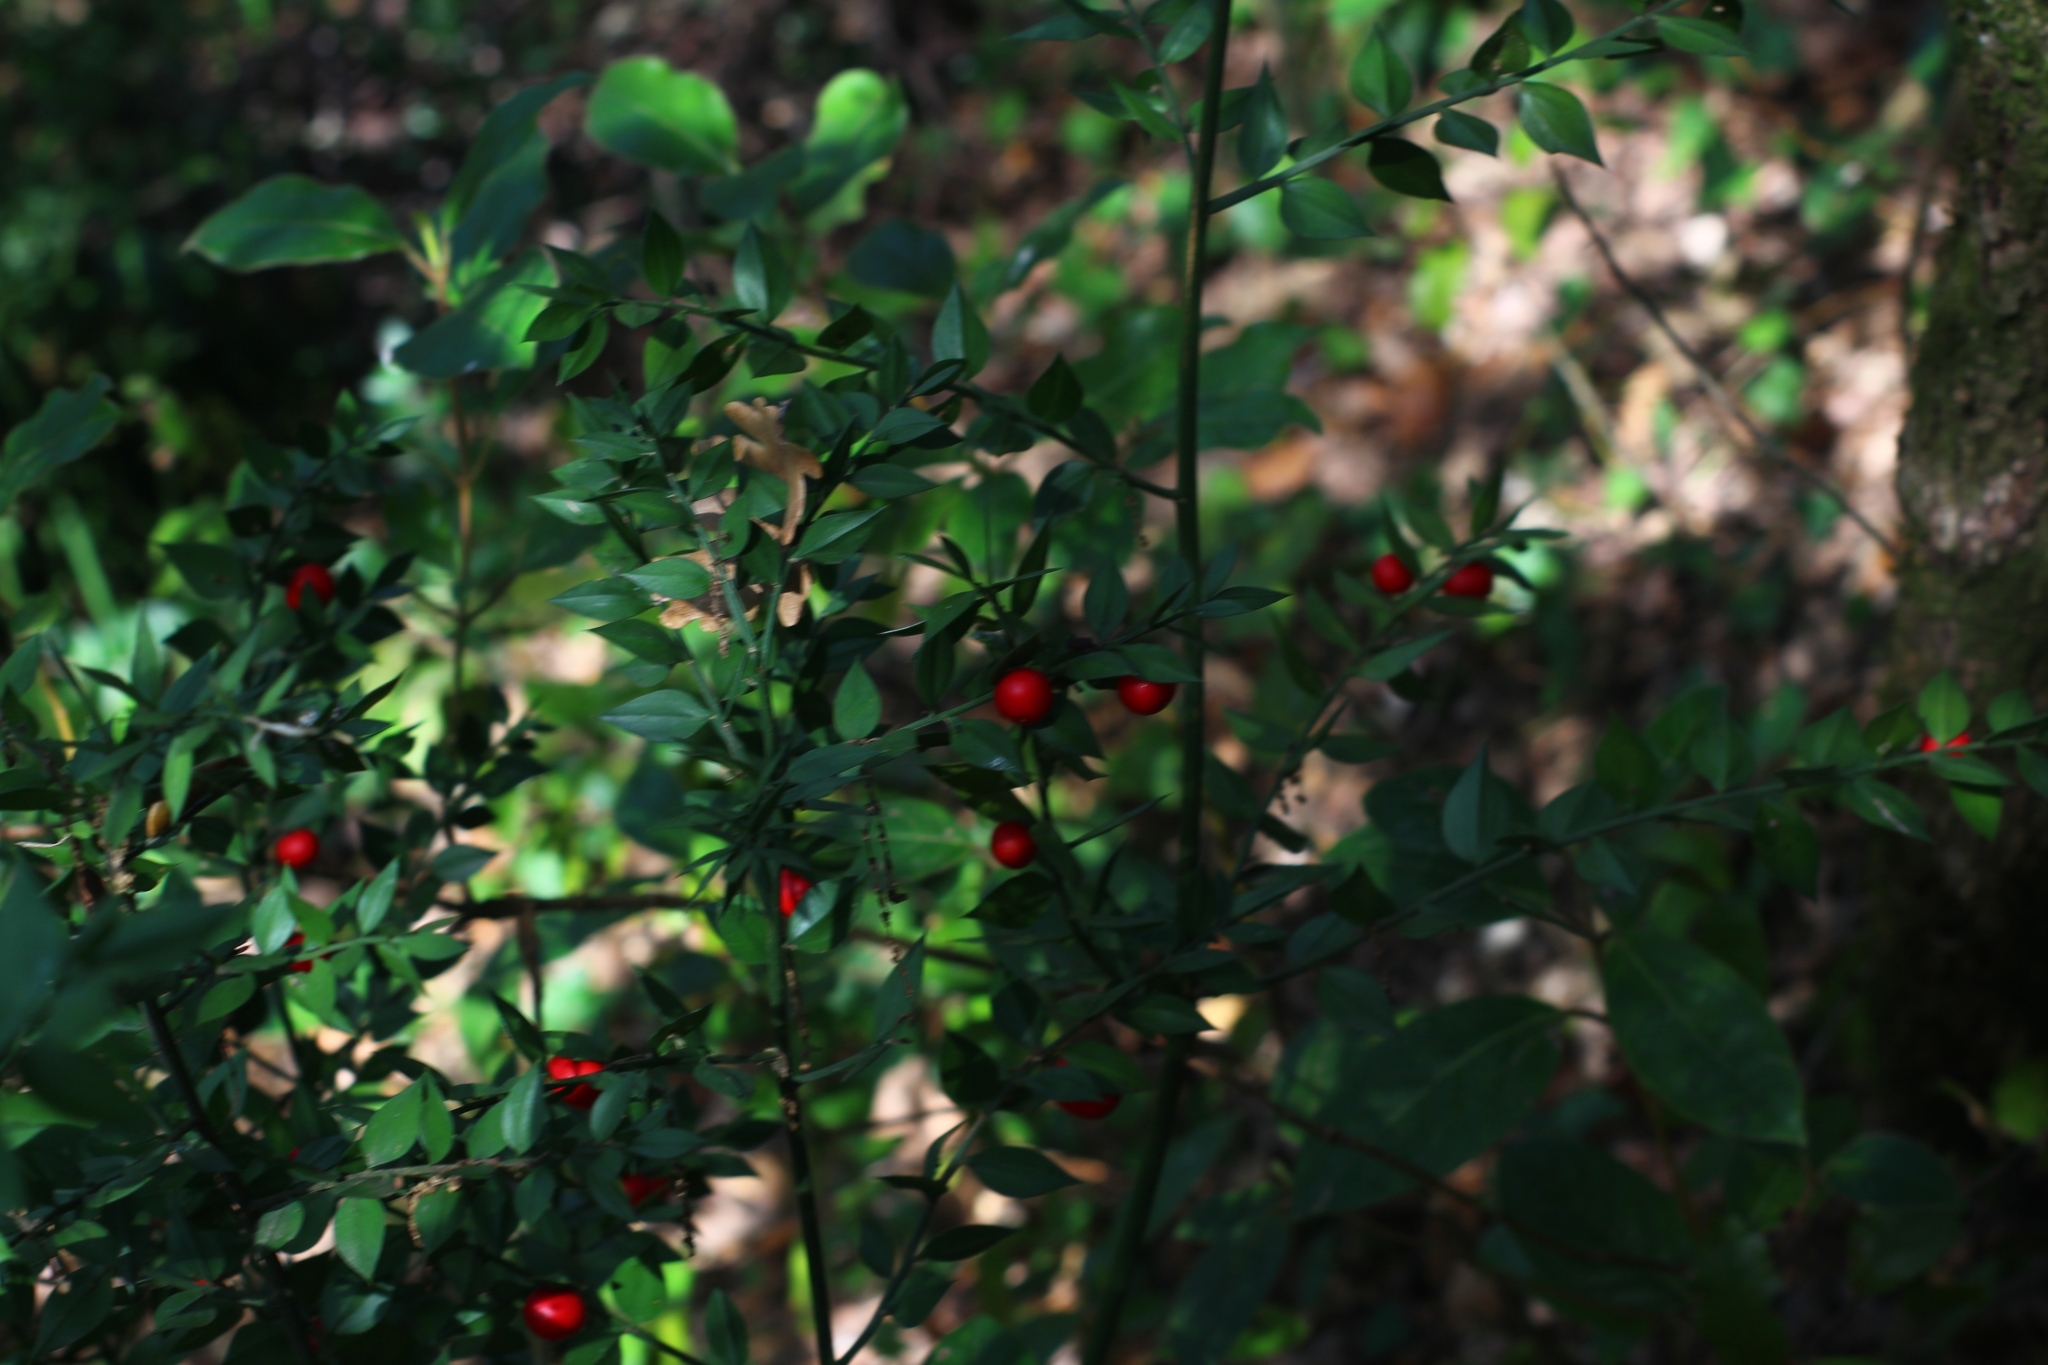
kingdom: Plantae
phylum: Tracheophyta
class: Liliopsida
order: Asparagales
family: Asparagaceae
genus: Ruscus
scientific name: Ruscus aculeatus
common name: Butcher's-broom
